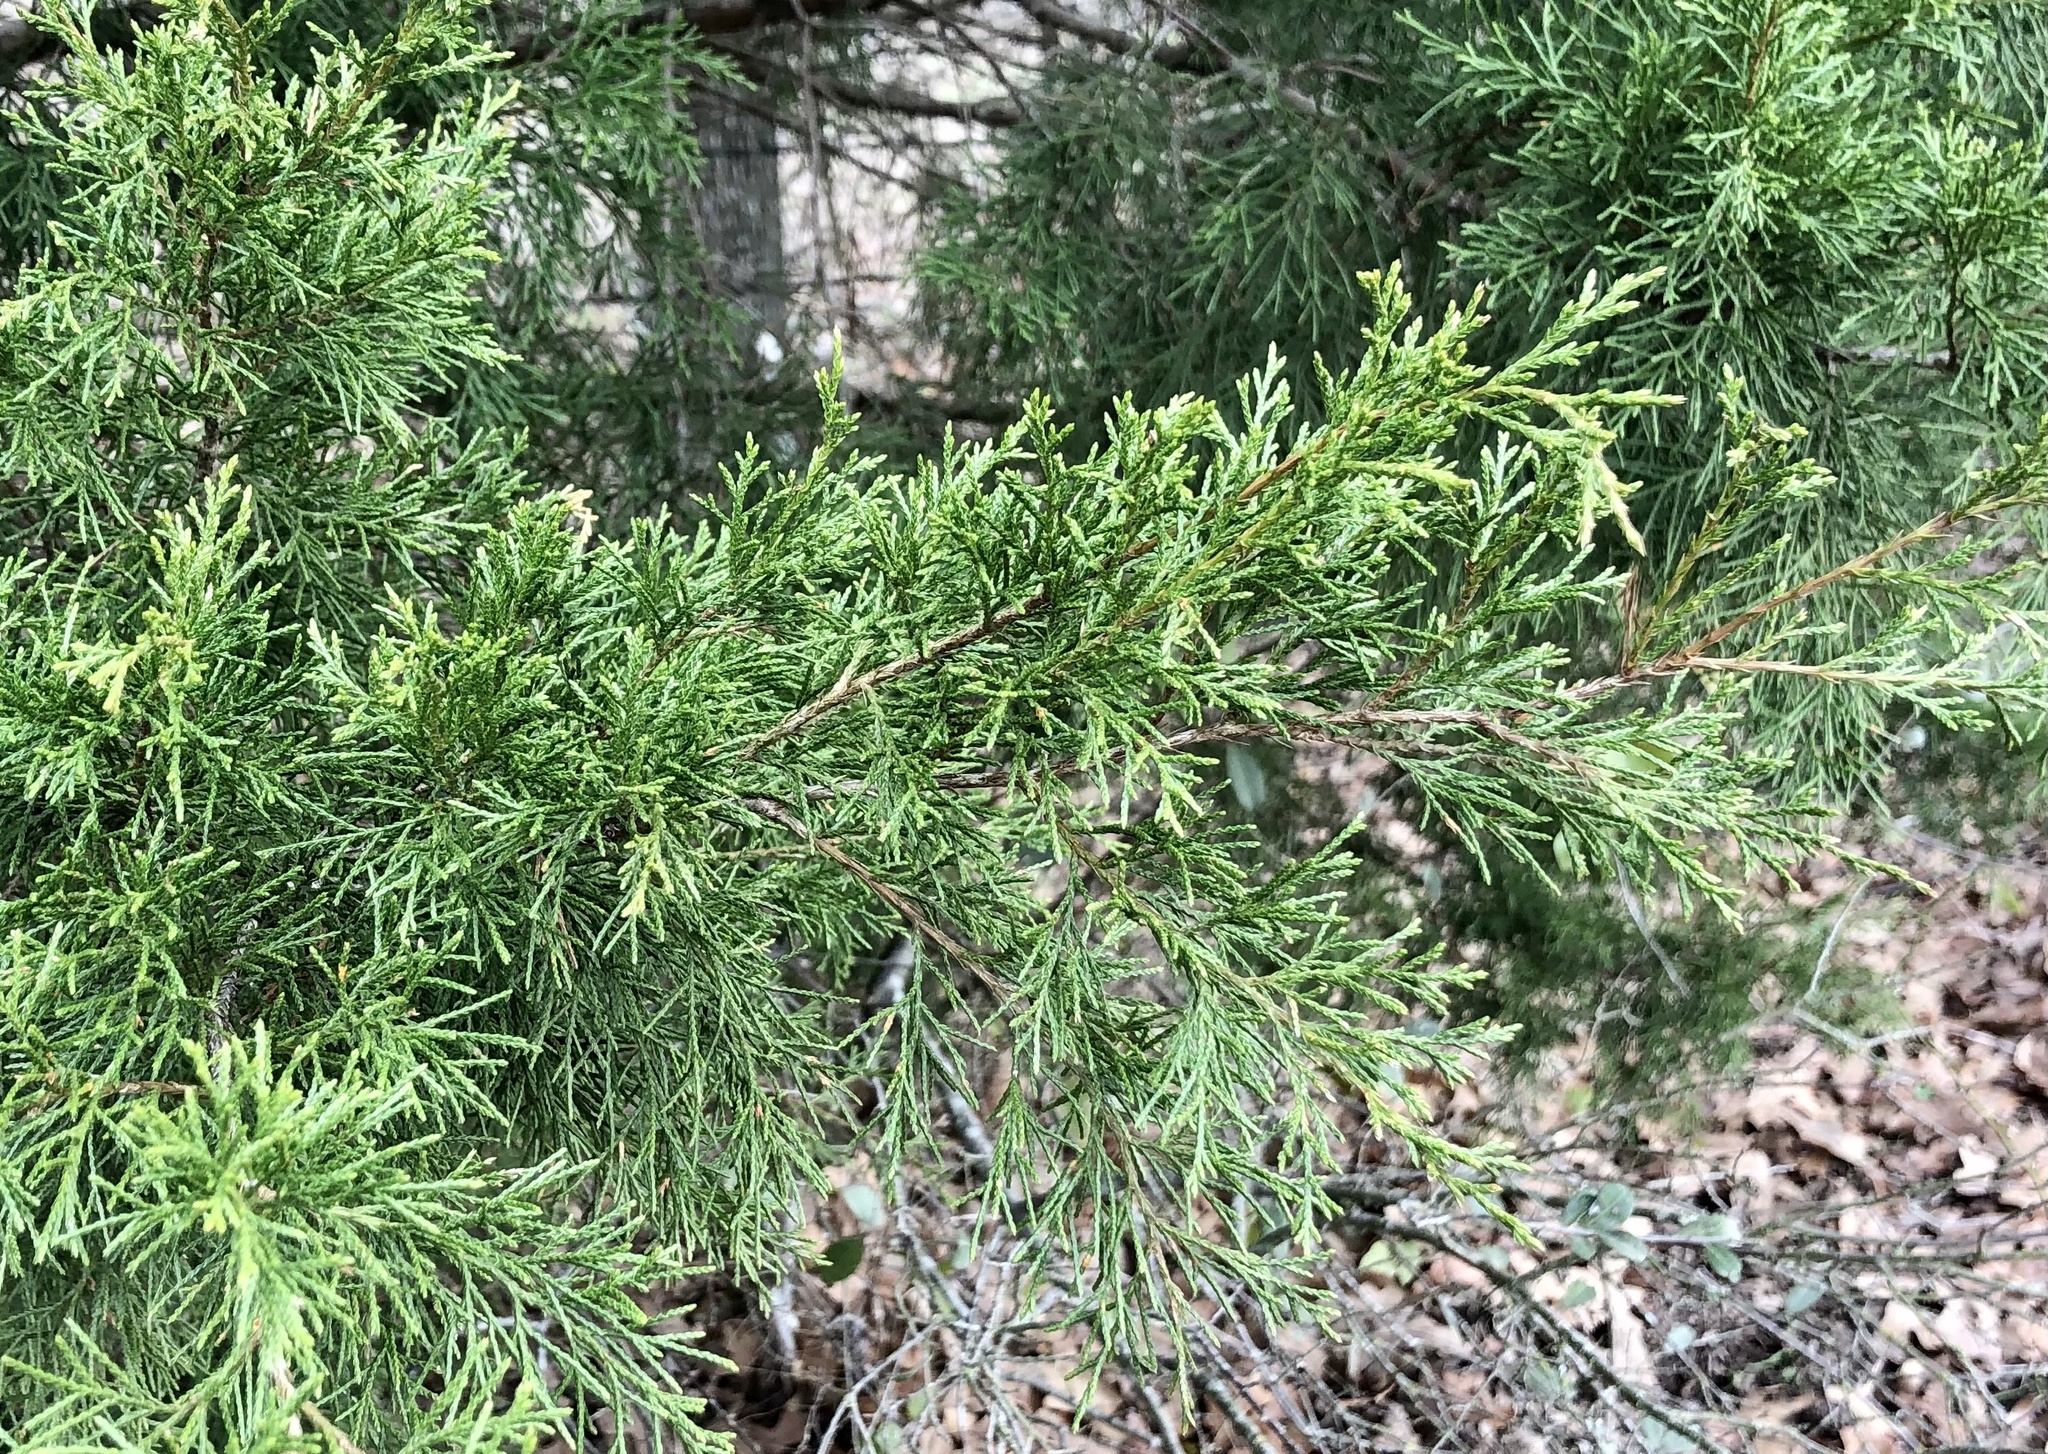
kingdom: Plantae
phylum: Tracheophyta
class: Pinopsida
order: Pinales
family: Cupressaceae
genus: Juniperus
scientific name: Juniperus virginiana
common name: Red juniper
